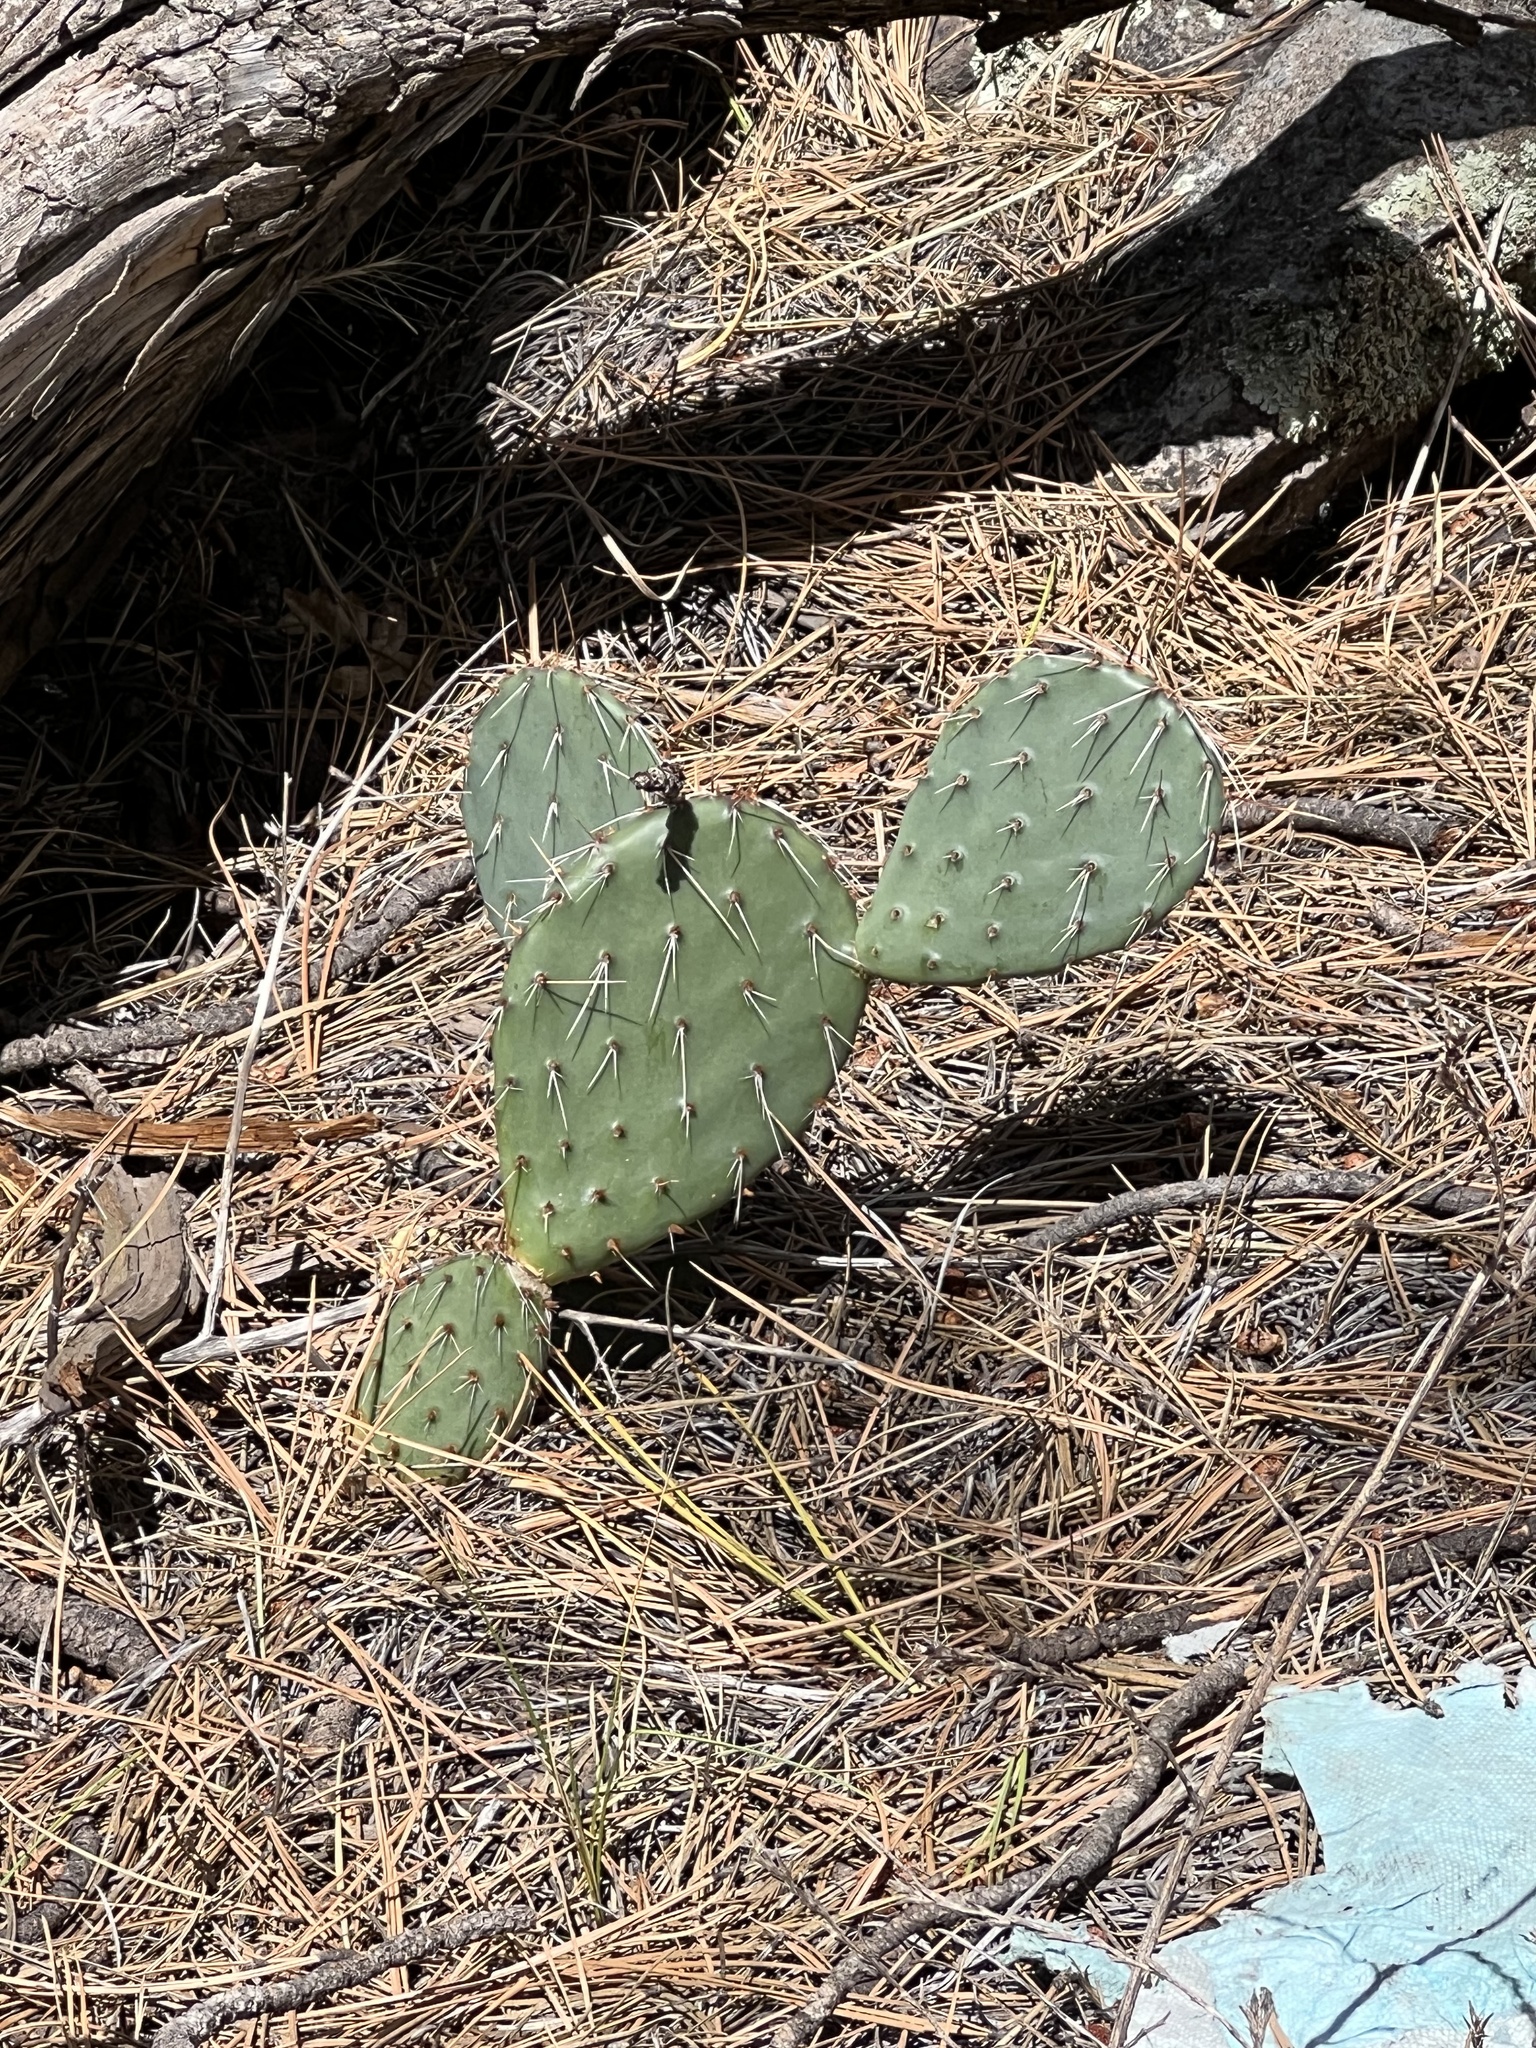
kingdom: Plantae
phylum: Tracheophyta
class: Magnoliopsida
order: Caryophyllales
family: Cactaceae
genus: Opuntia
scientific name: Opuntia phaeacantha
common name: New mexico prickly-pear
